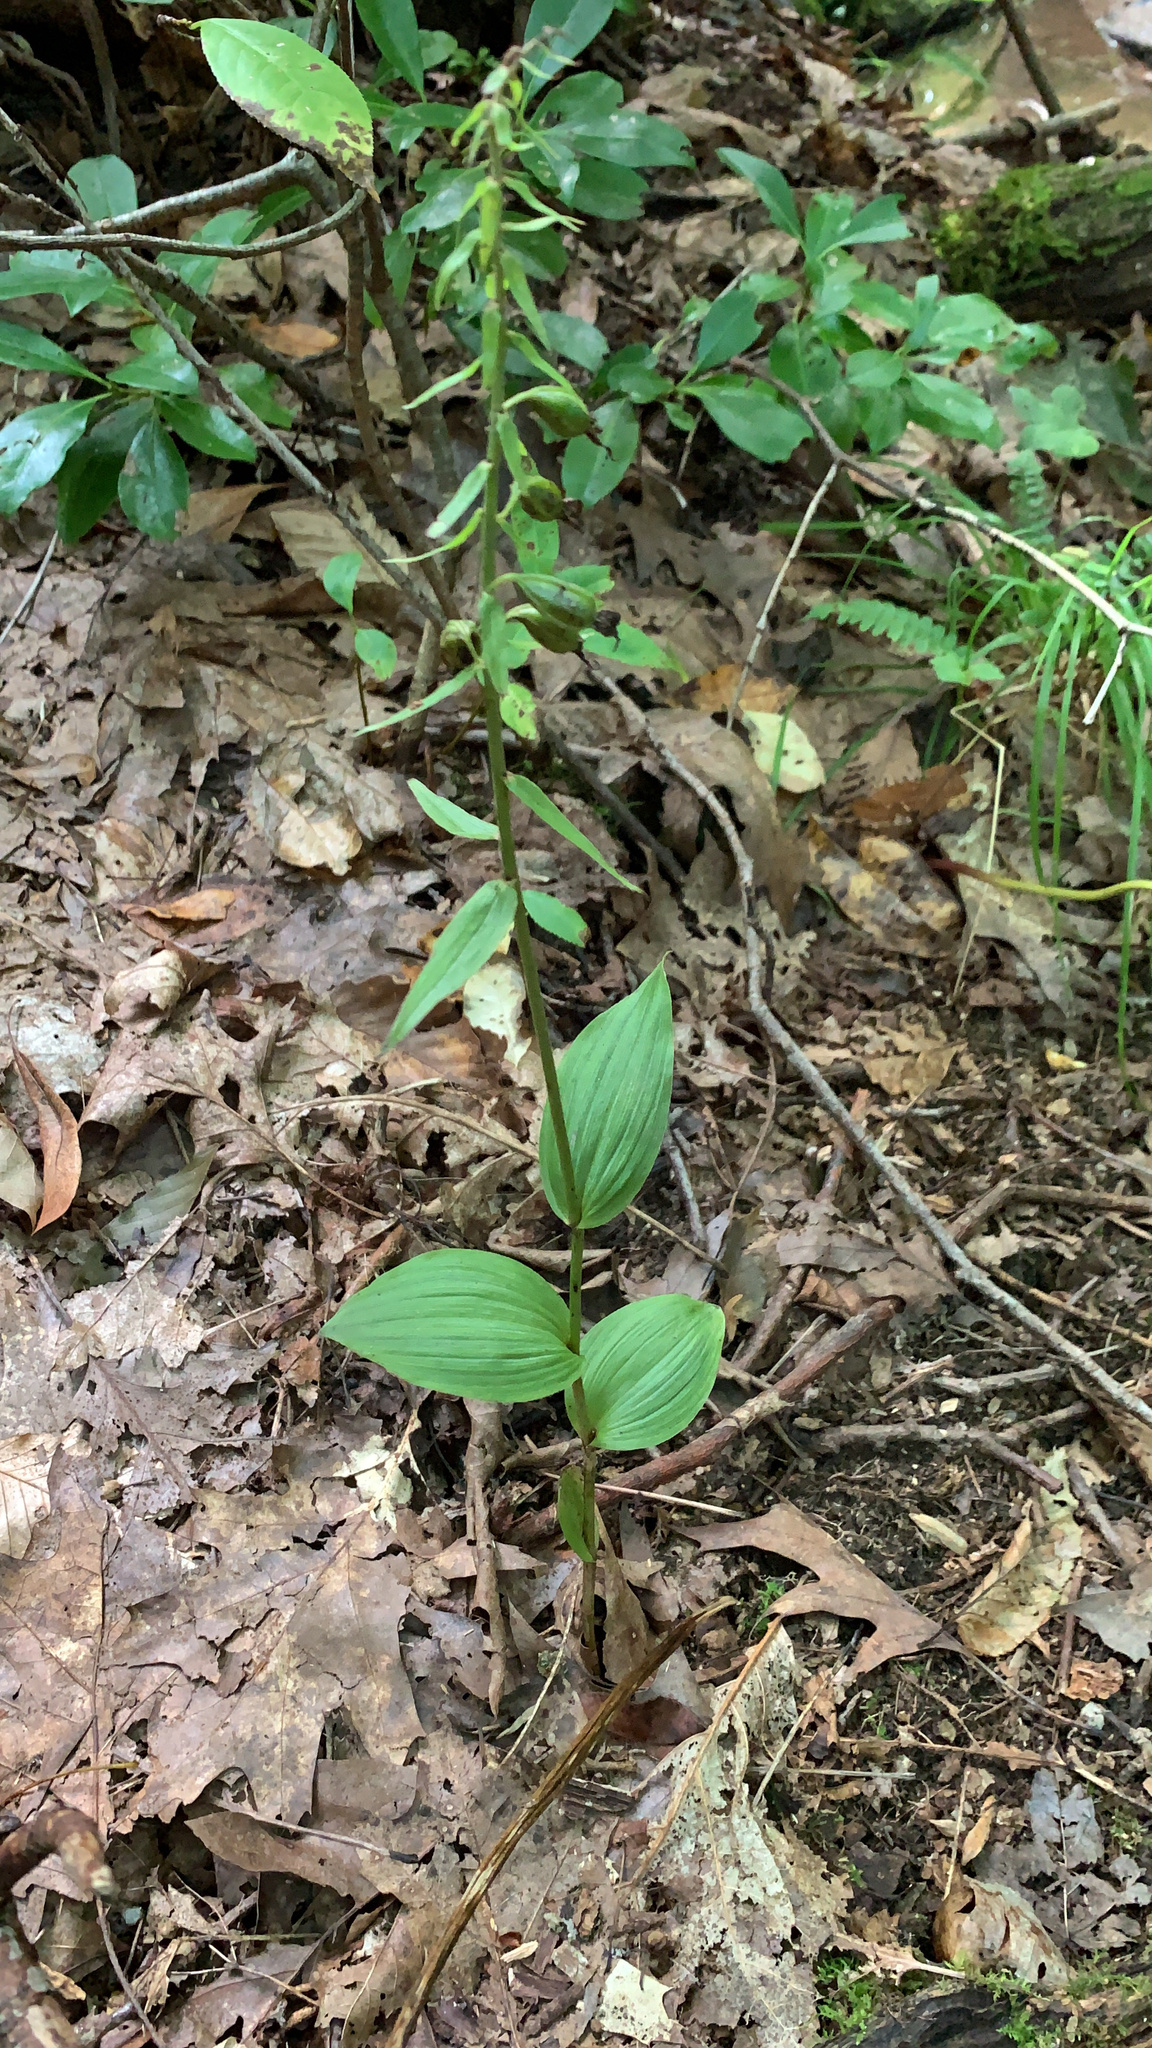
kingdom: Plantae
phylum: Tracheophyta
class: Liliopsida
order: Asparagales
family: Orchidaceae
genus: Epipactis
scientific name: Epipactis helleborine
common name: Broad-leaved helleborine
